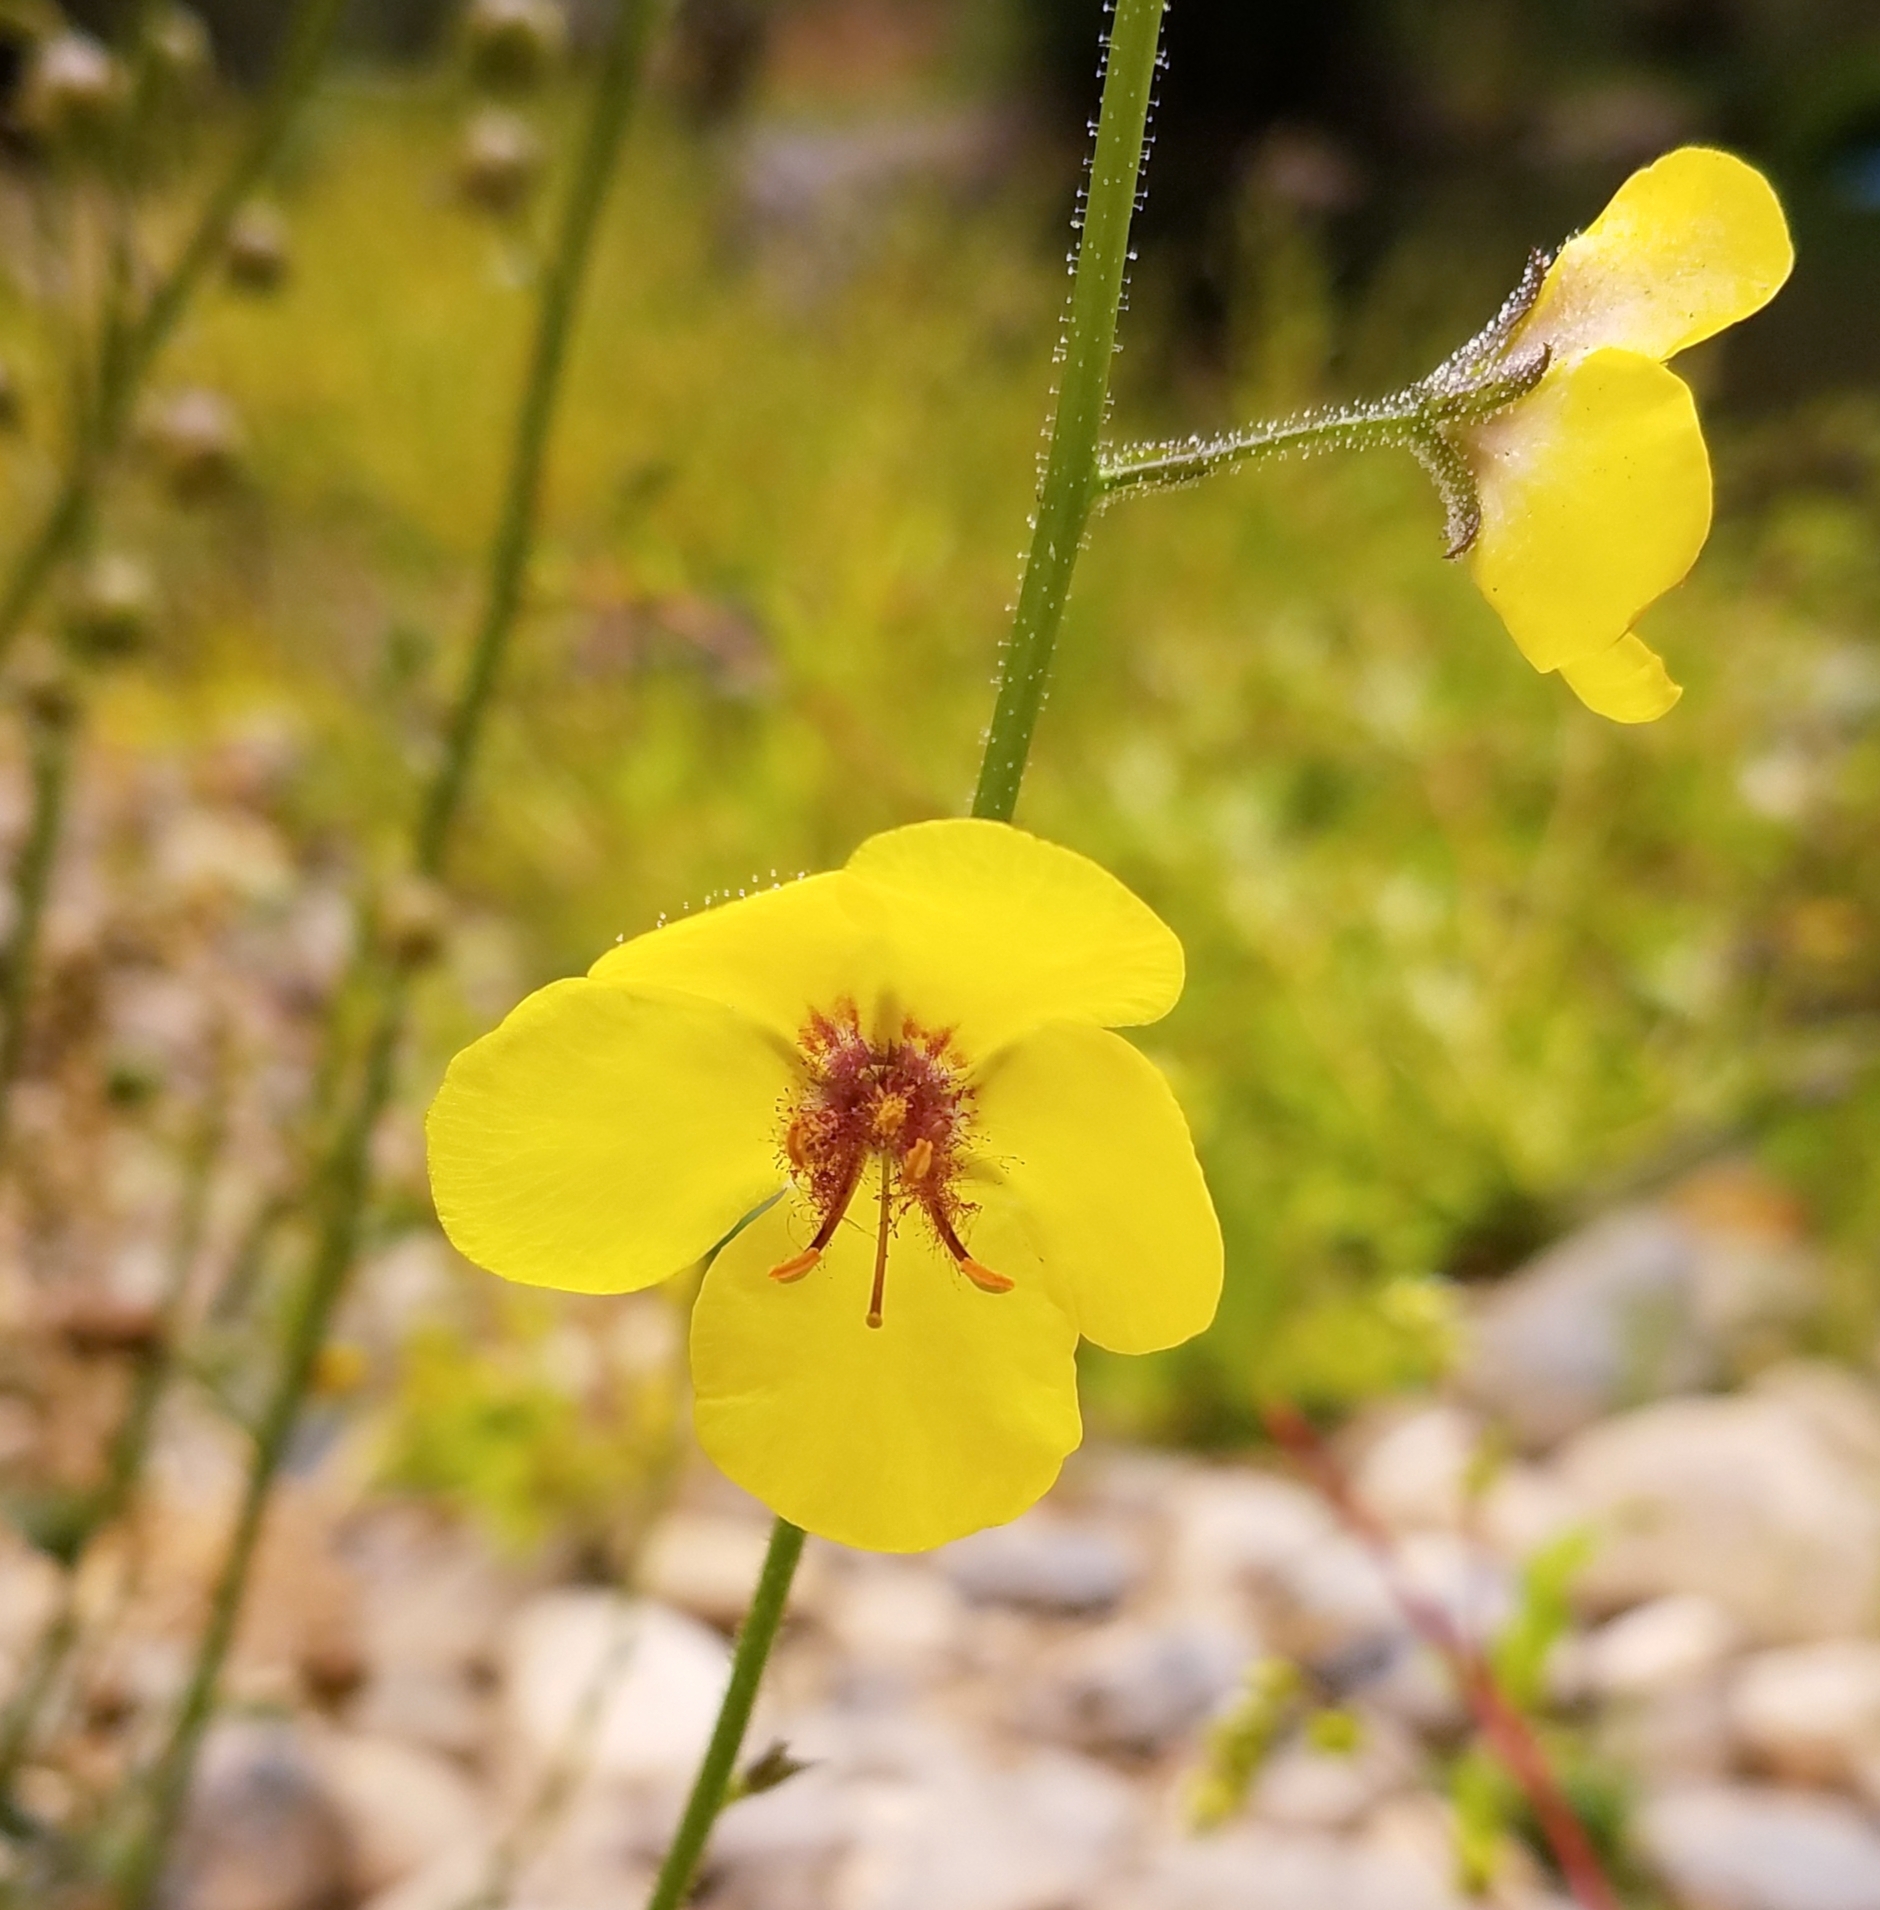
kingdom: Plantae
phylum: Tracheophyta
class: Magnoliopsida
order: Lamiales
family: Scrophulariaceae
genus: Verbascum
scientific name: Verbascum blattaria
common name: Moth mullein
